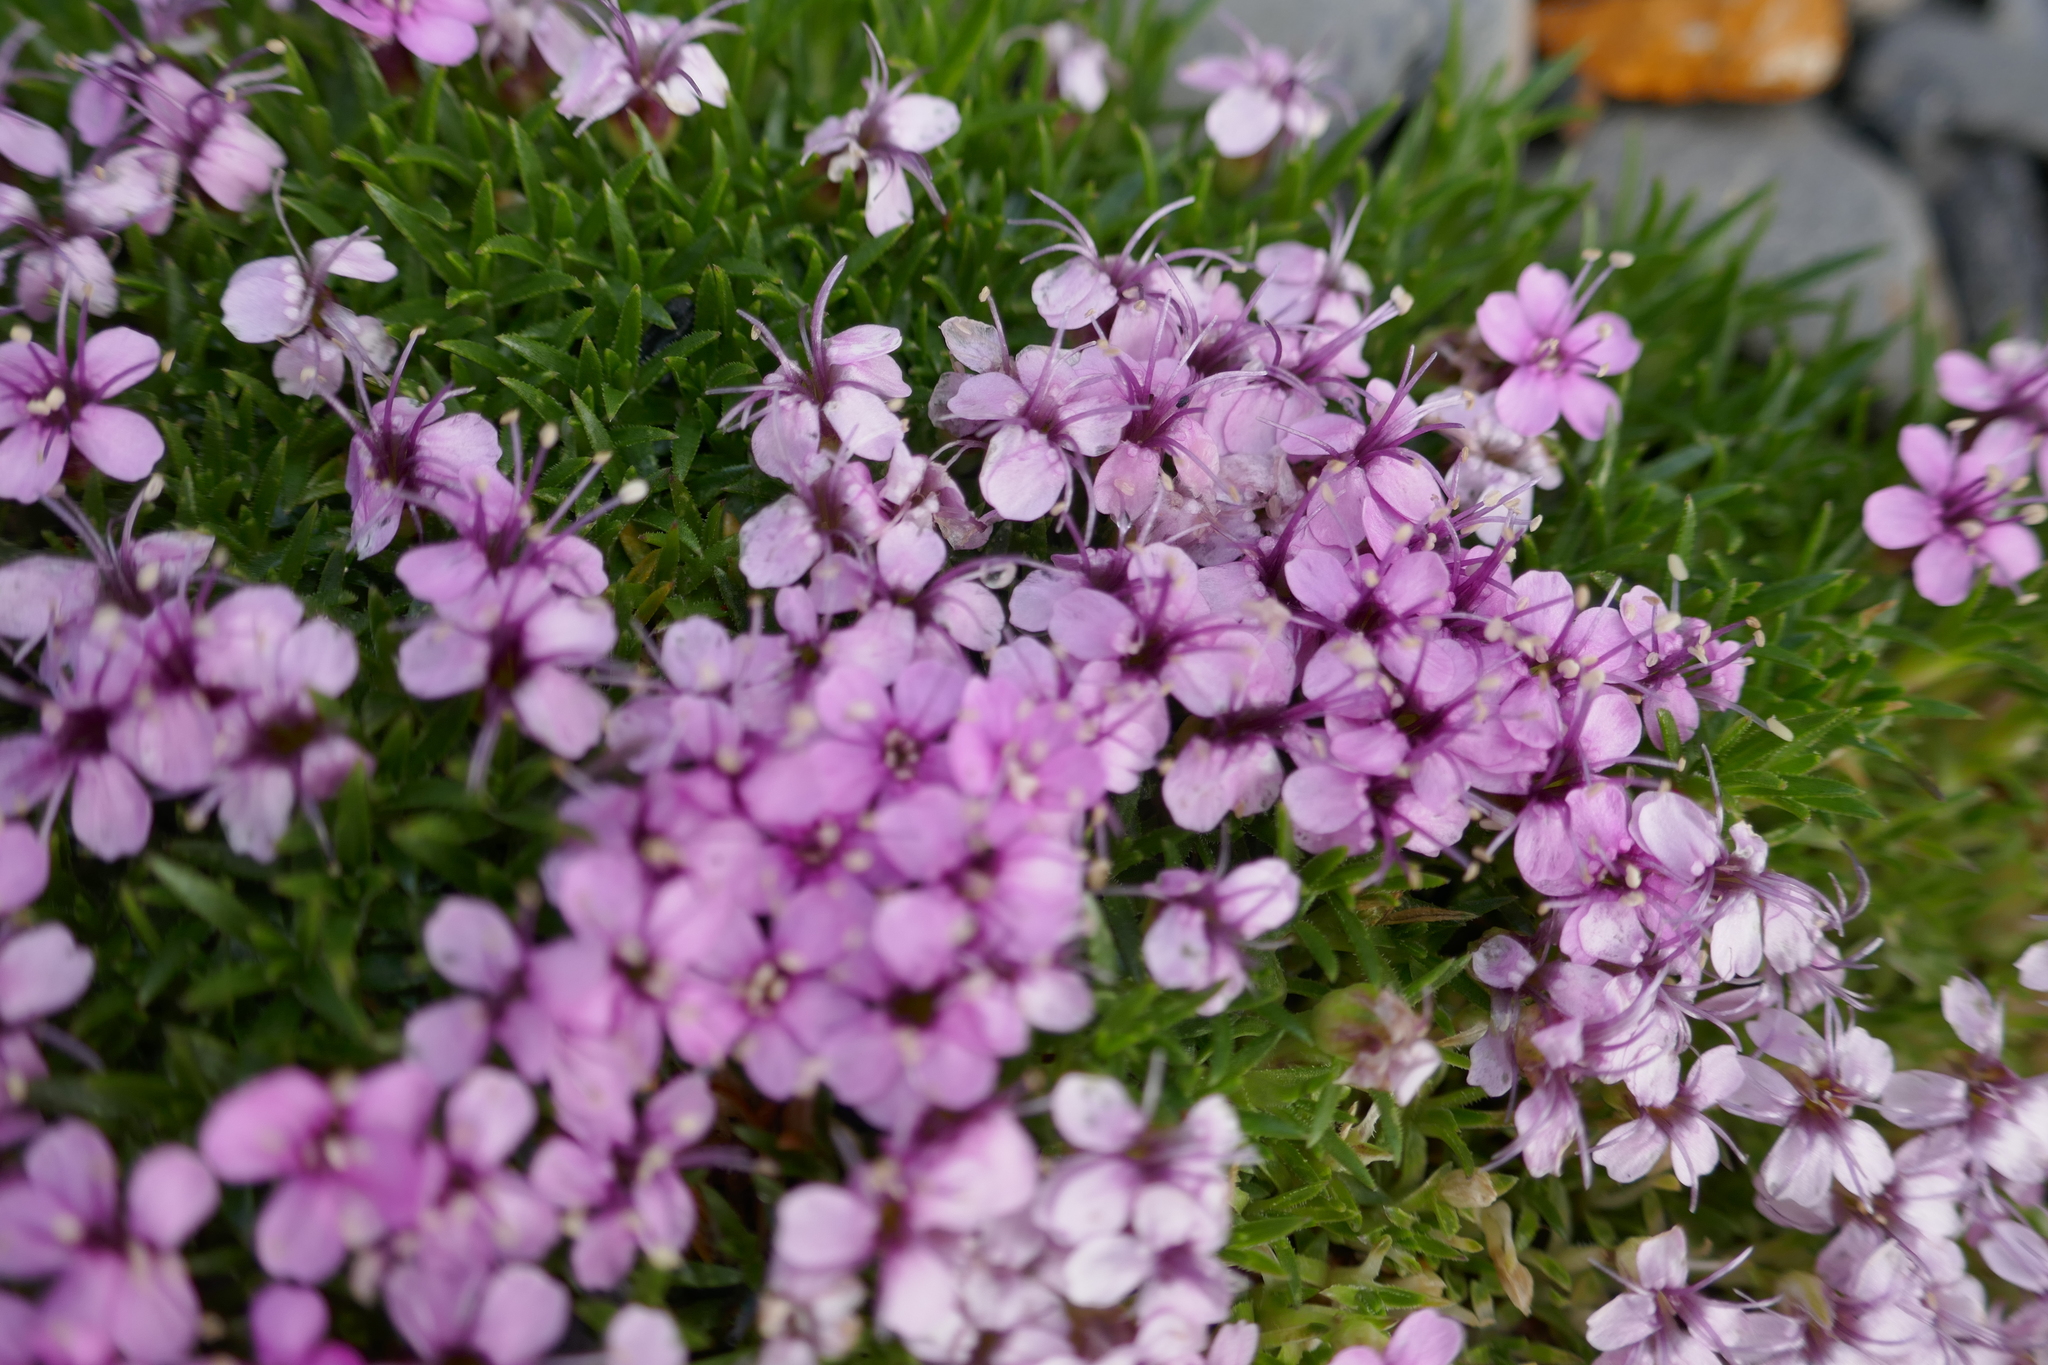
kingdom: Plantae
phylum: Tracheophyta
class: Magnoliopsida
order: Caryophyllales
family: Caryophyllaceae
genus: Silene
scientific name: Silene acaulis
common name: Moss campion
